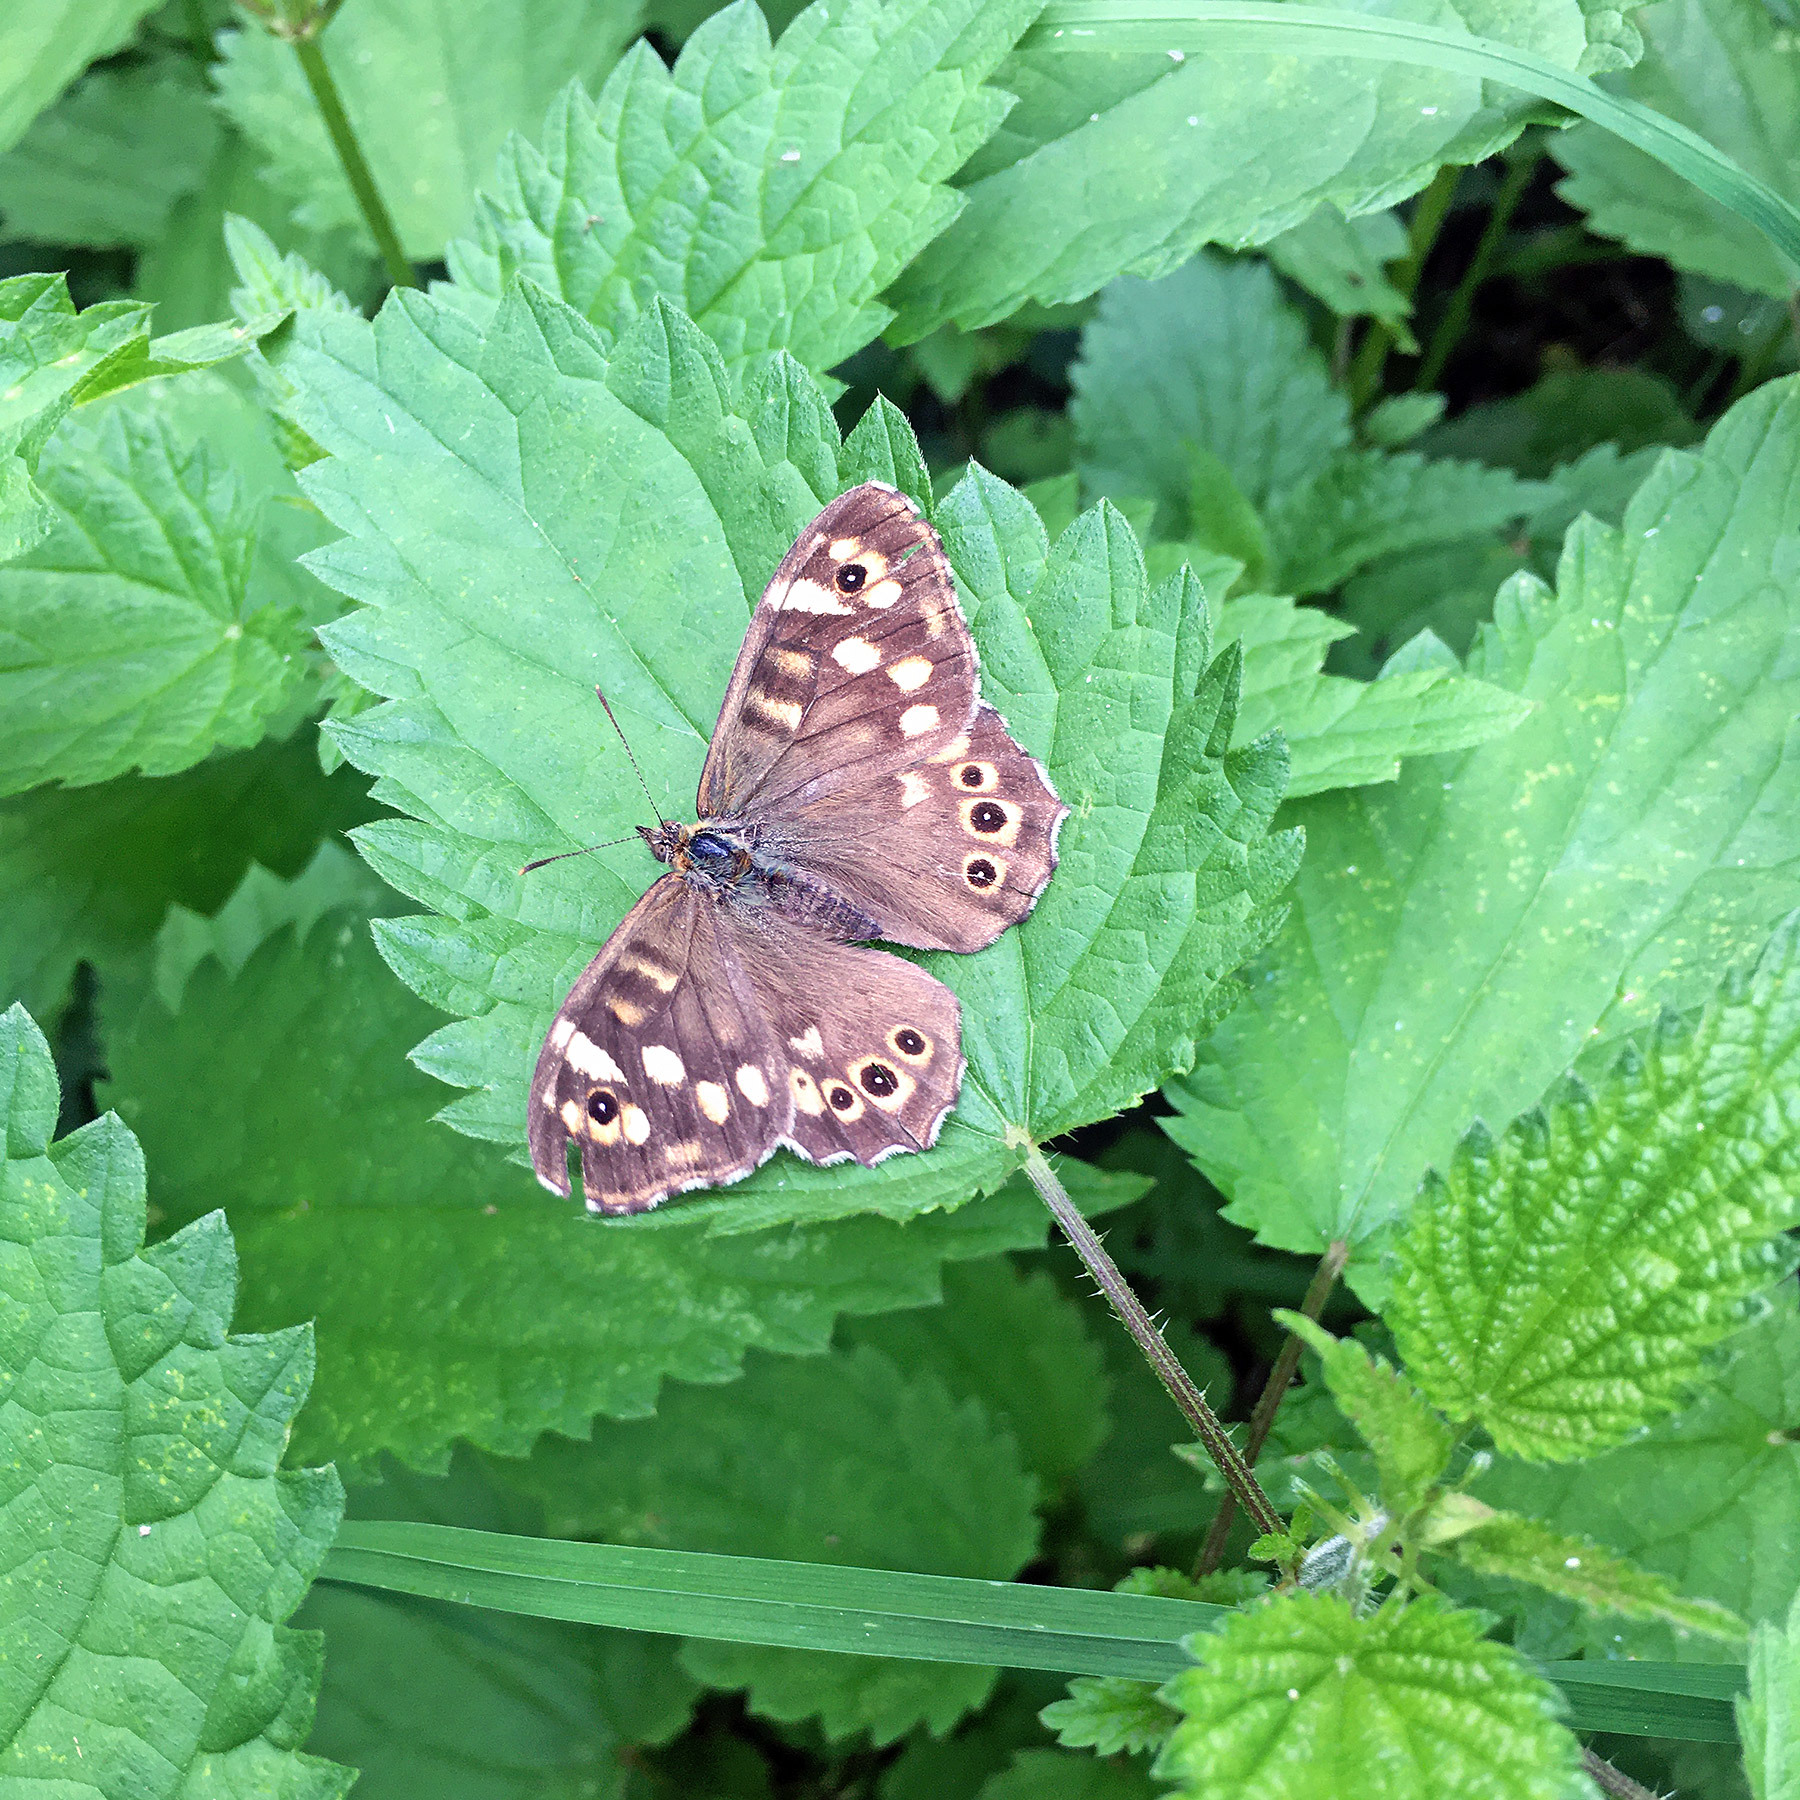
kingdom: Animalia
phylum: Arthropoda
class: Insecta
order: Lepidoptera
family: Nymphalidae
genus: Pararge
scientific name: Pararge aegeria
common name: Speckled wood
